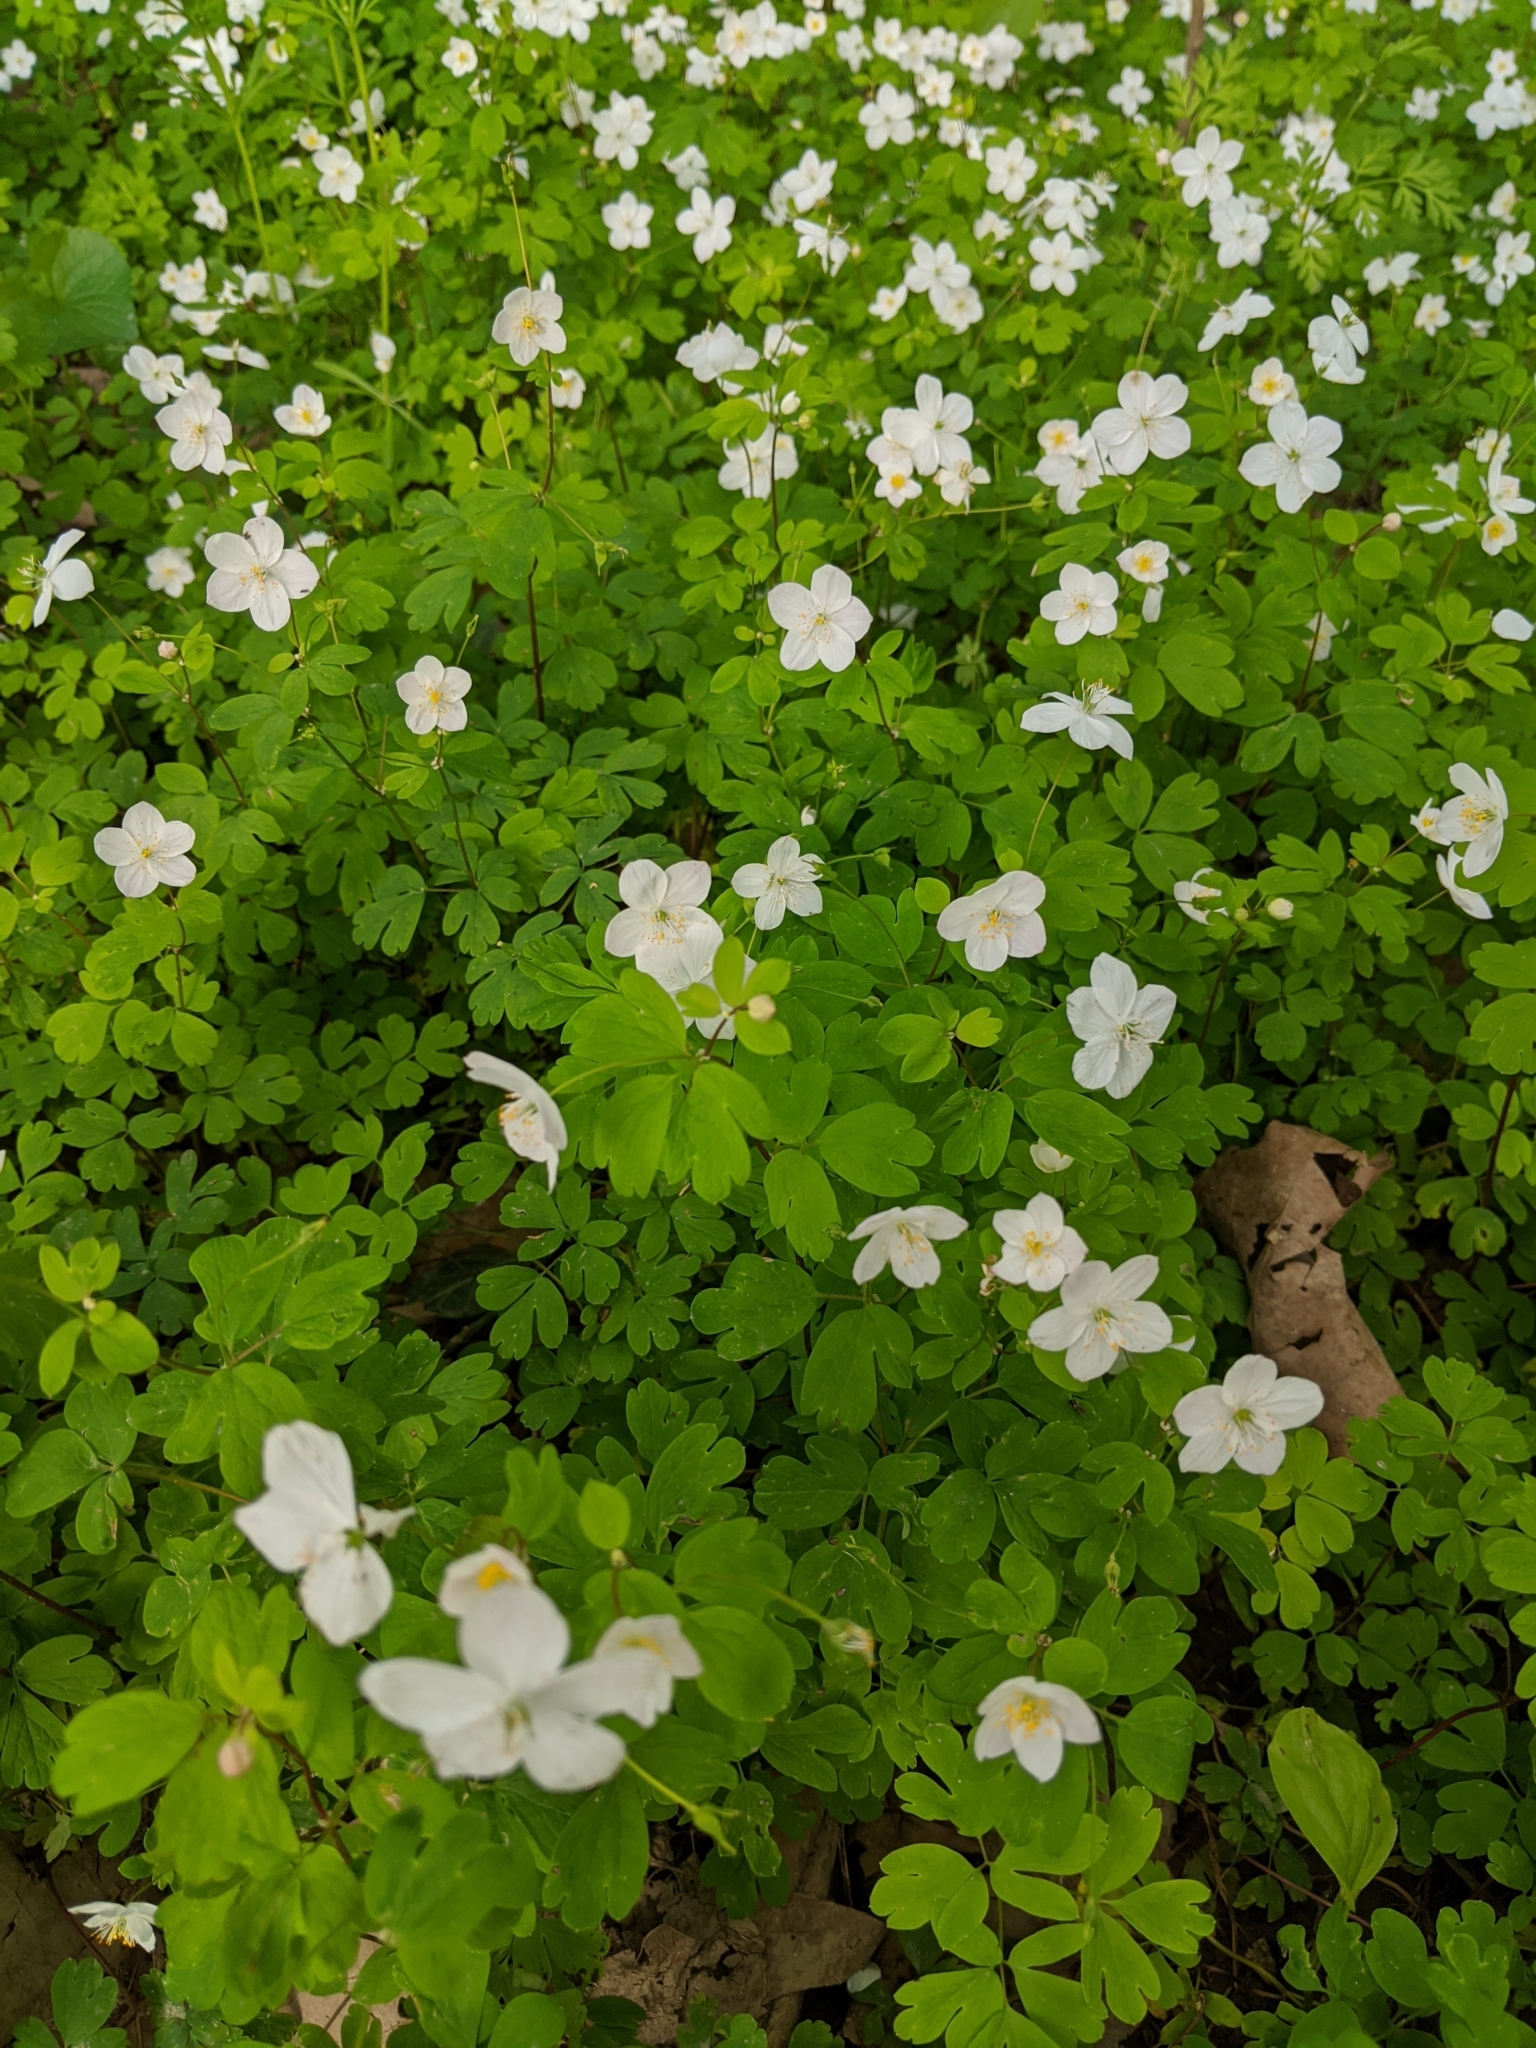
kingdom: Plantae
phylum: Tracheophyta
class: Magnoliopsida
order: Ranunculales
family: Ranunculaceae
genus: Enemion
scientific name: Enemion biternatum
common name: Eastern false rue-anemone
